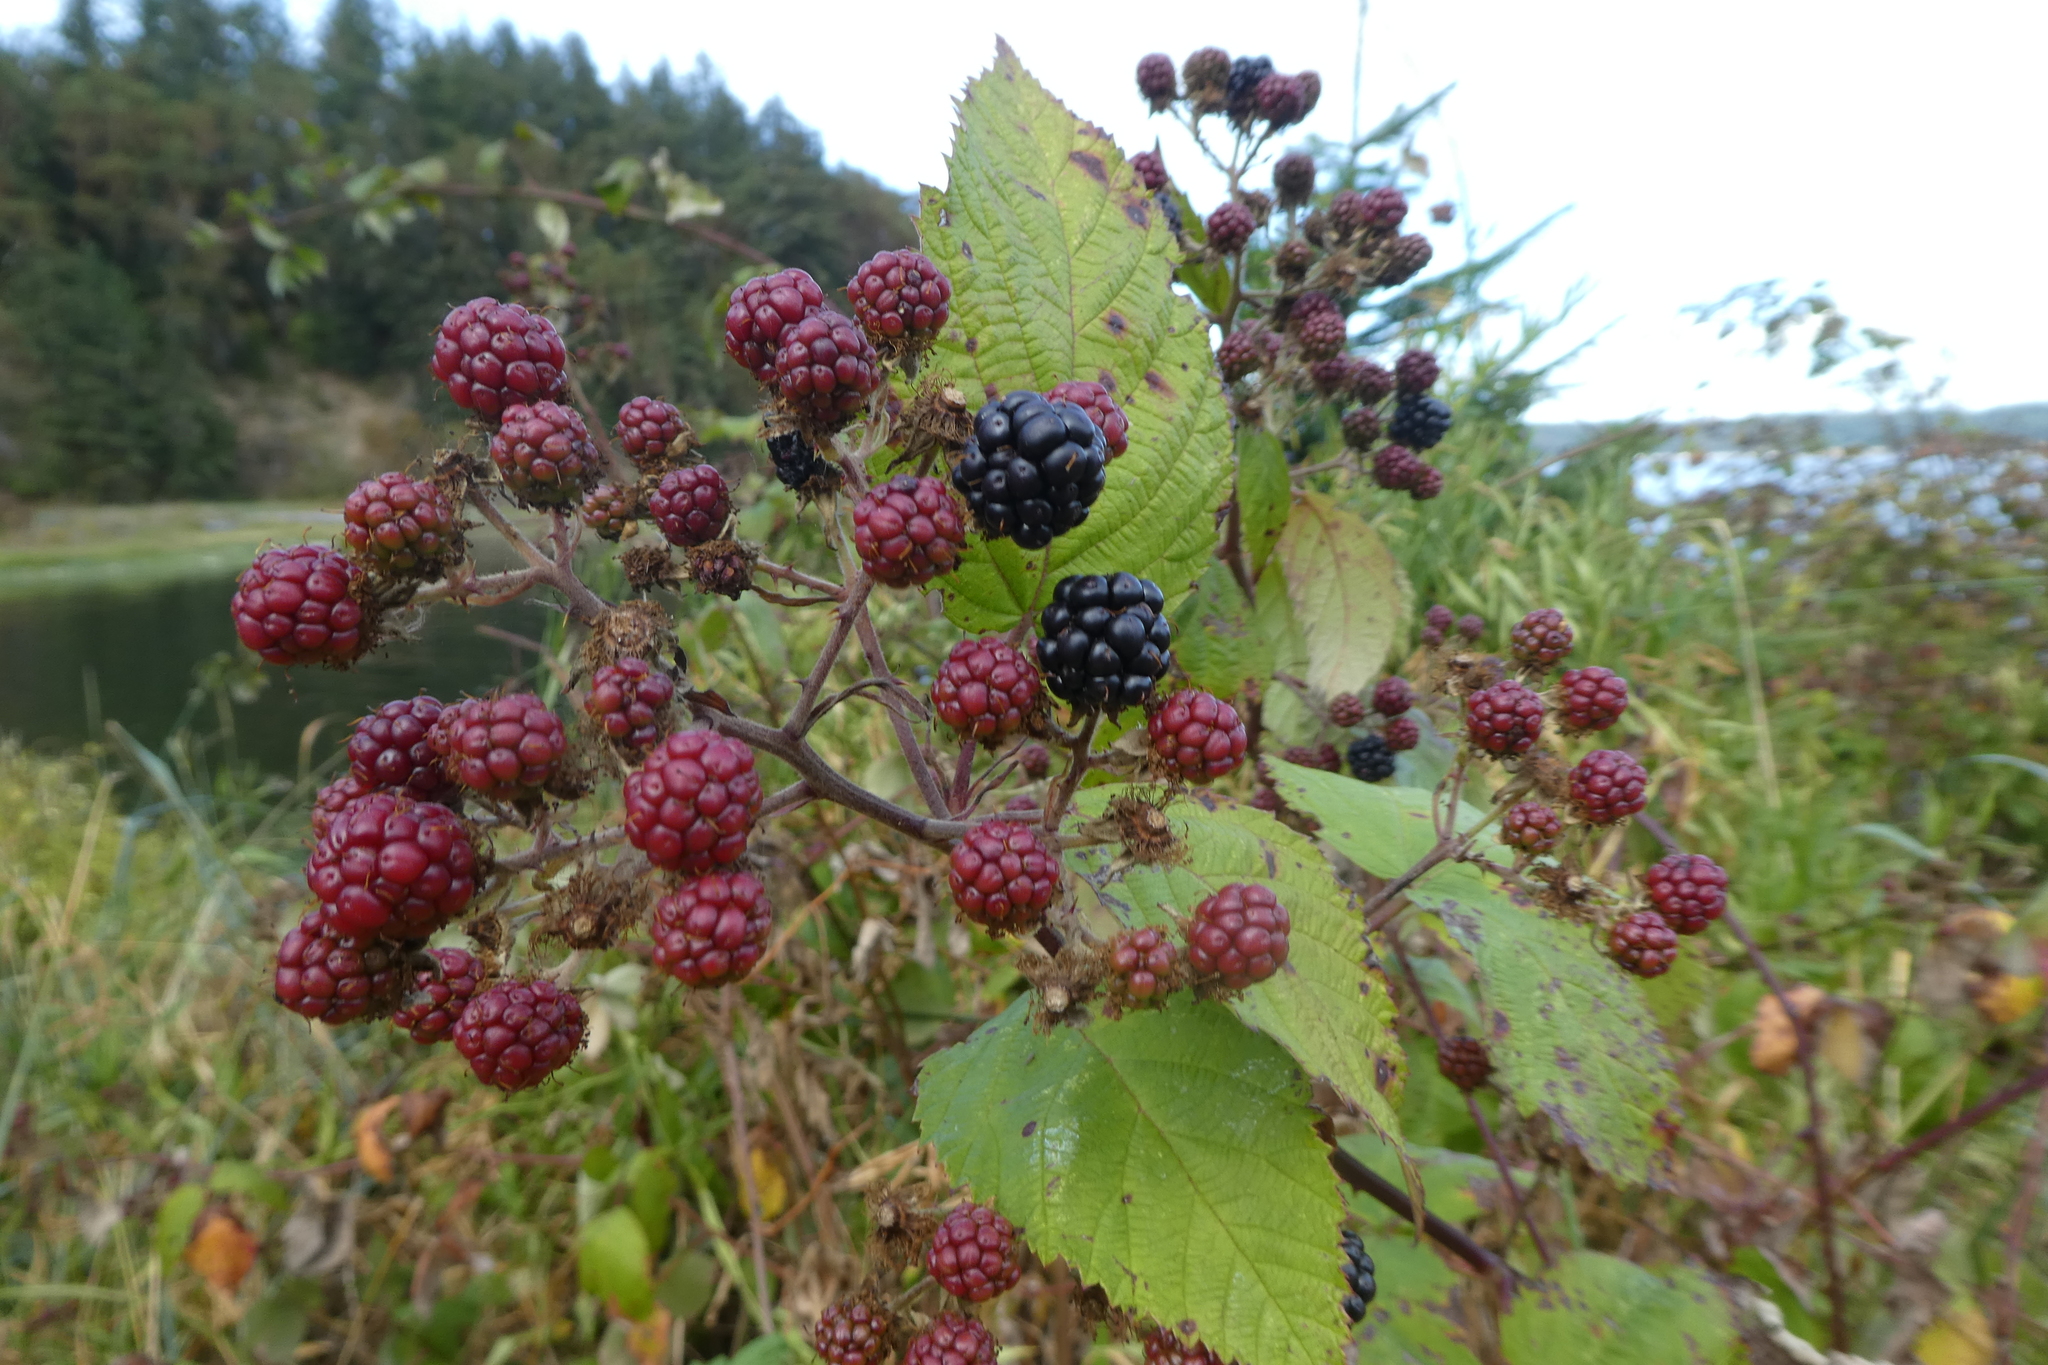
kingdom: Plantae
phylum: Tracheophyta
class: Magnoliopsida
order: Rosales
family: Rosaceae
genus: Rubus
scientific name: Rubus bifrons
